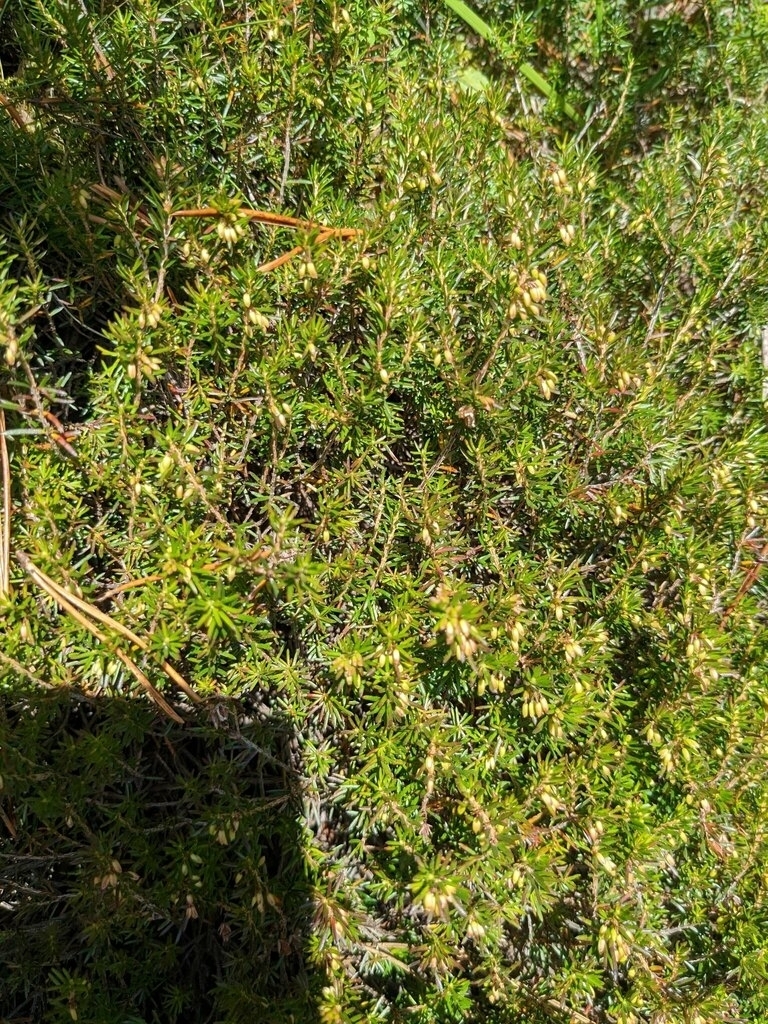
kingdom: Plantae
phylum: Tracheophyta
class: Magnoliopsida
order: Ericales
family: Ericaceae
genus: Erica
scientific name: Erica carnea
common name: Winter heath
